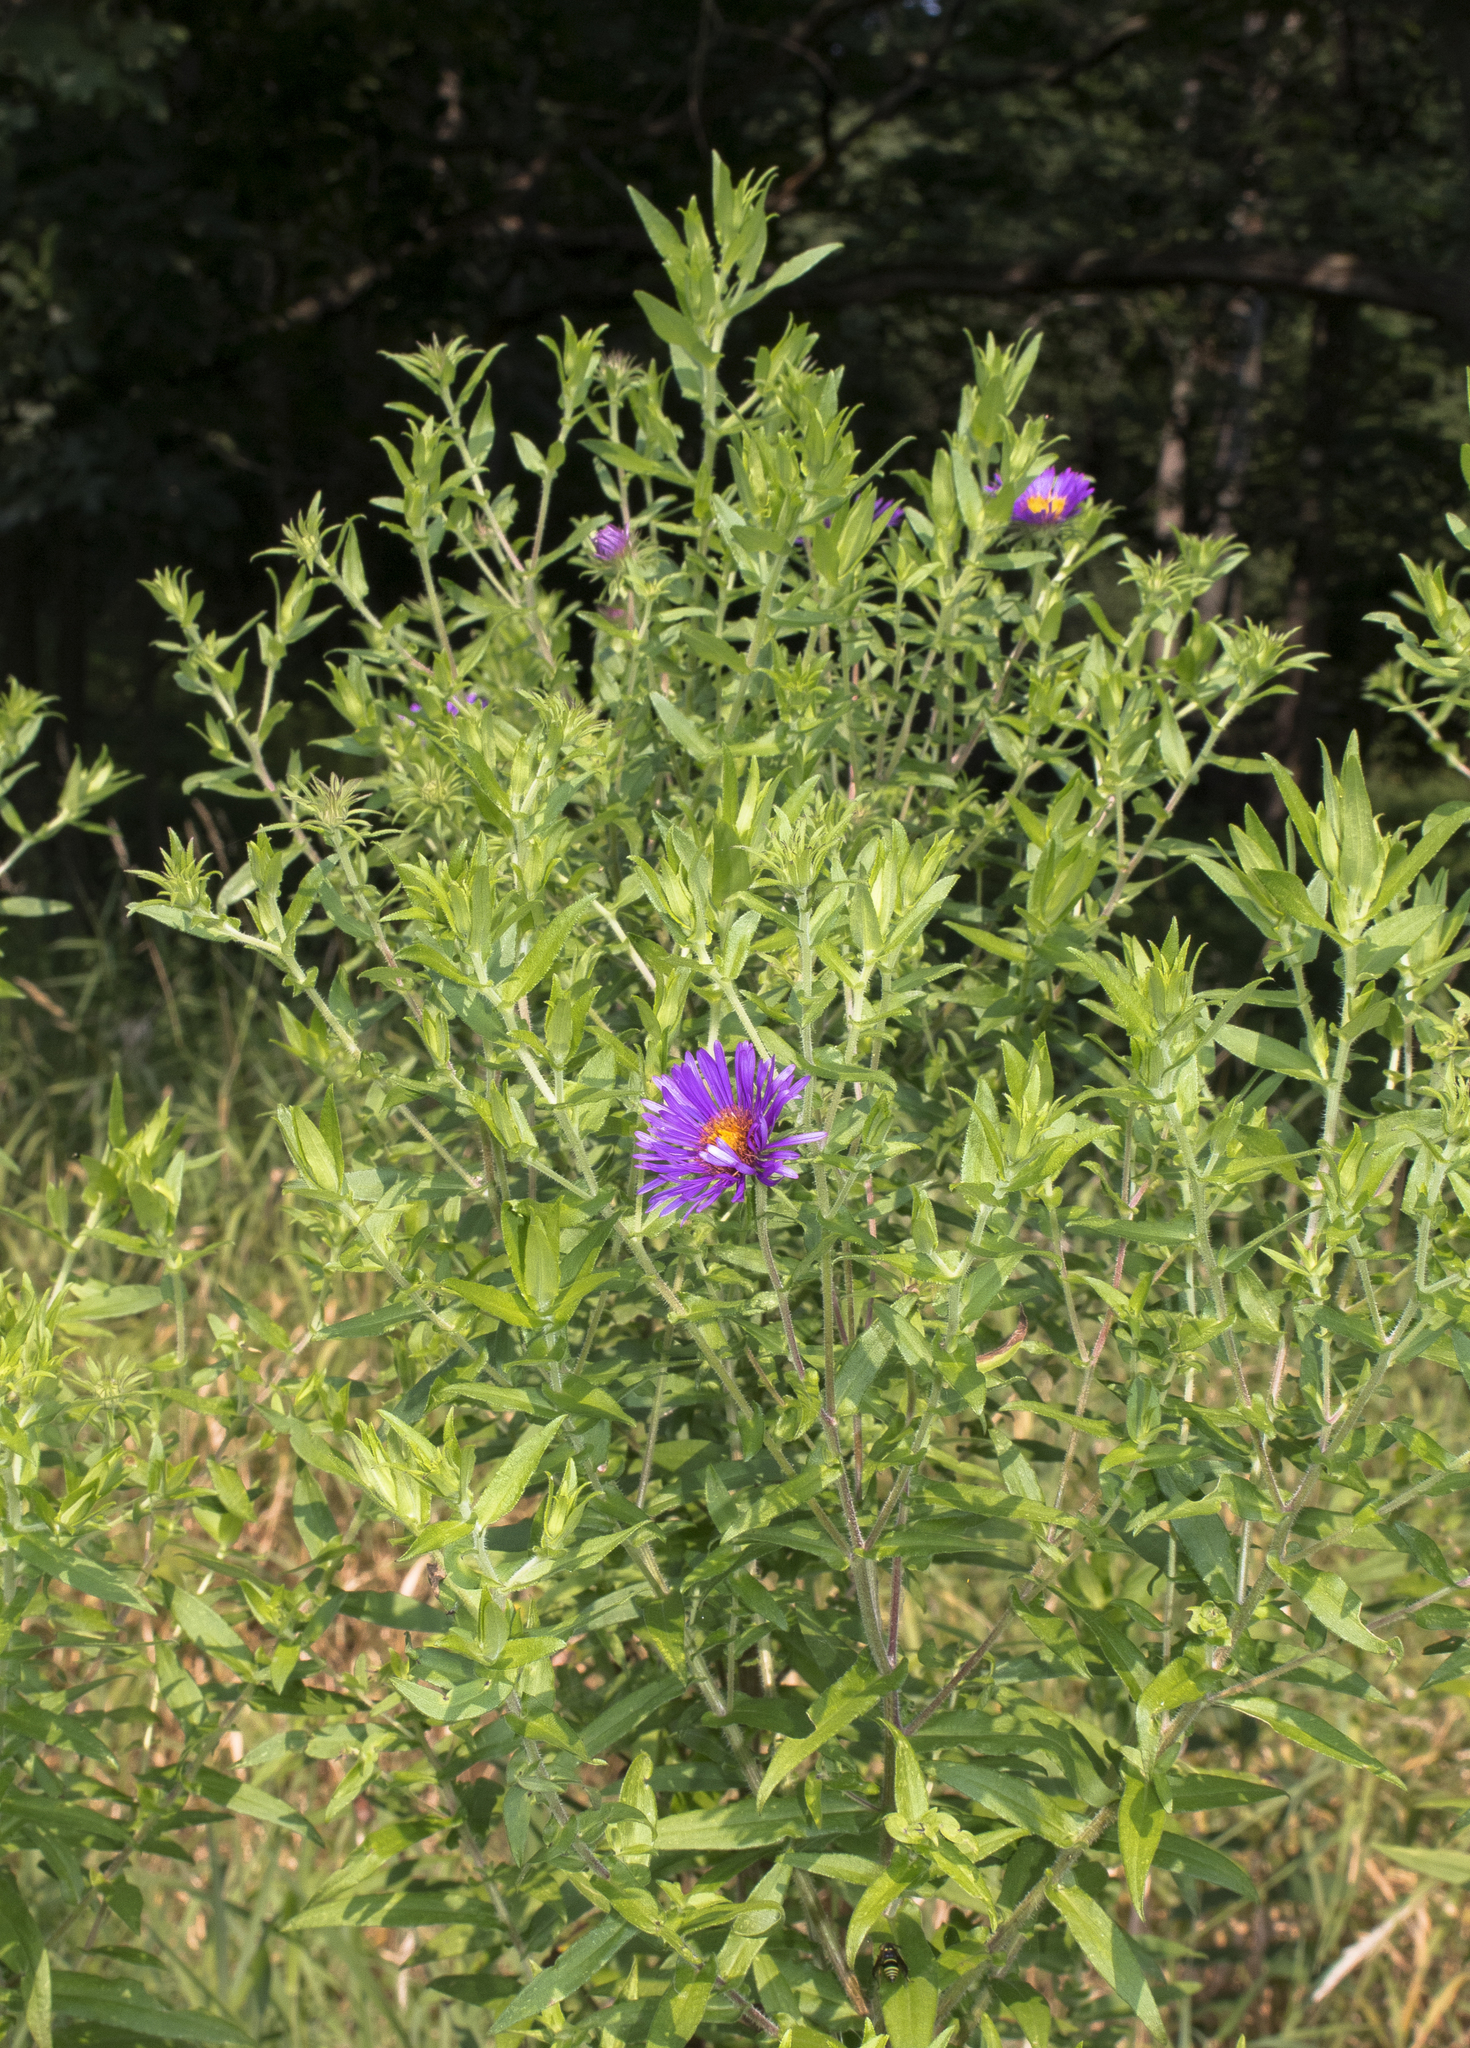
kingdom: Plantae
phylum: Tracheophyta
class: Magnoliopsida
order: Asterales
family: Asteraceae
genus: Symphyotrichum
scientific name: Symphyotrichum novae-angliae
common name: Michaelmas daisy
